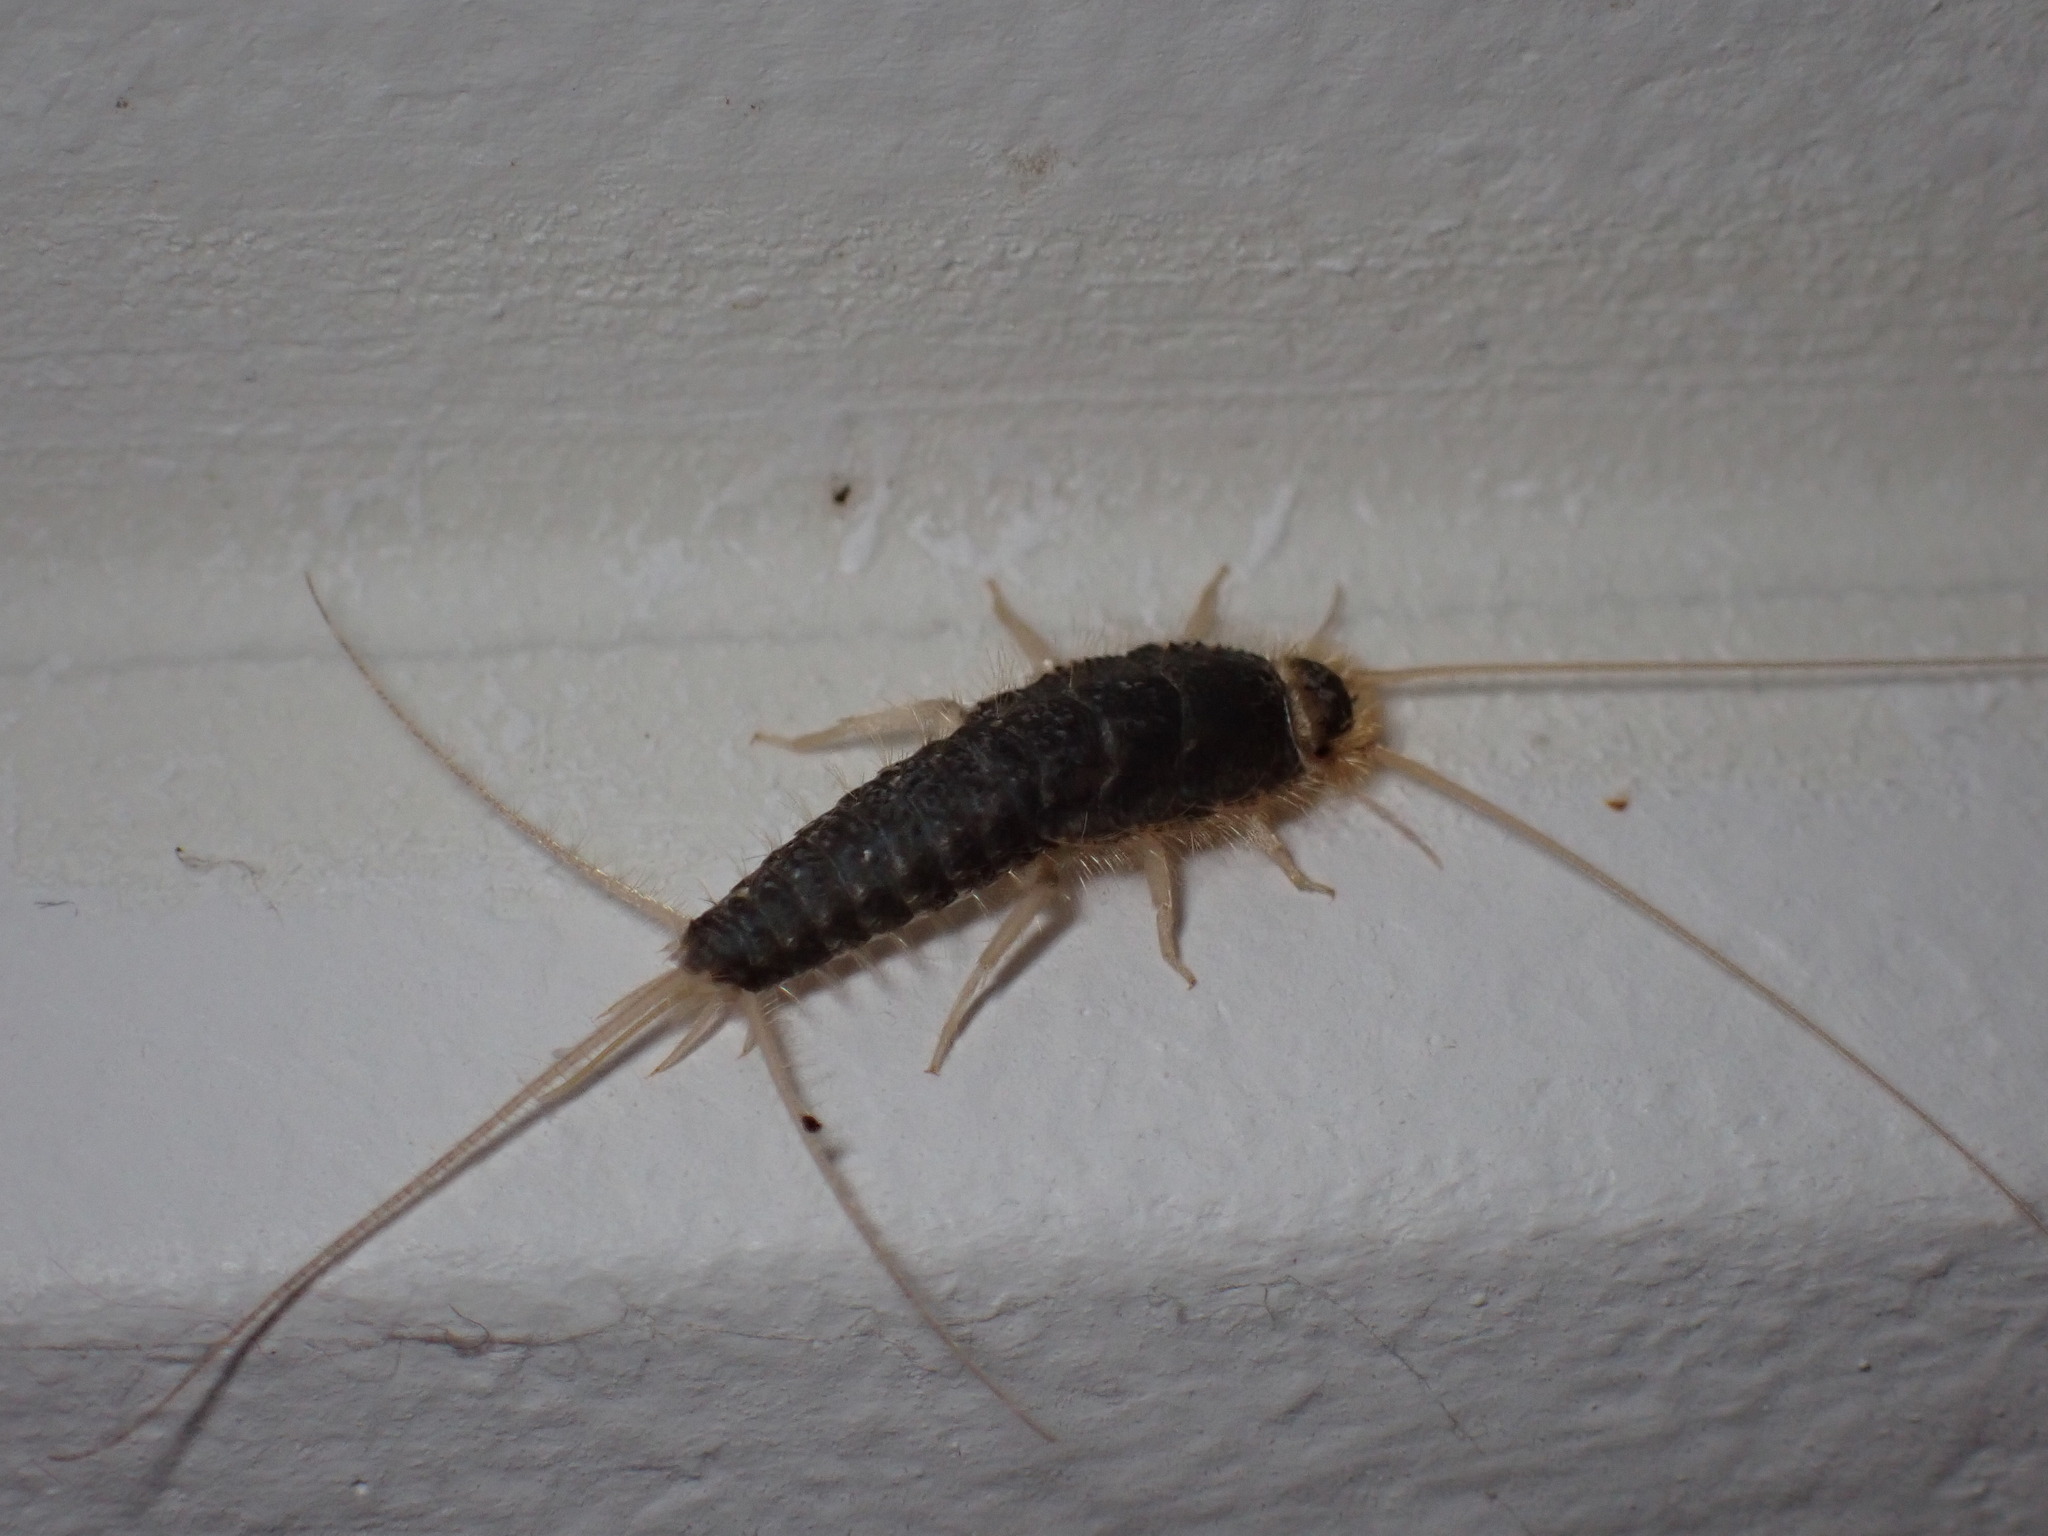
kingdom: Animalia
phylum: Arthropoda
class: Insecta
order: Zygentoma
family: Lepismatidae
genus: Ctenolepisma
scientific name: Ctenolepisma longicaudatum
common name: Silverfish
